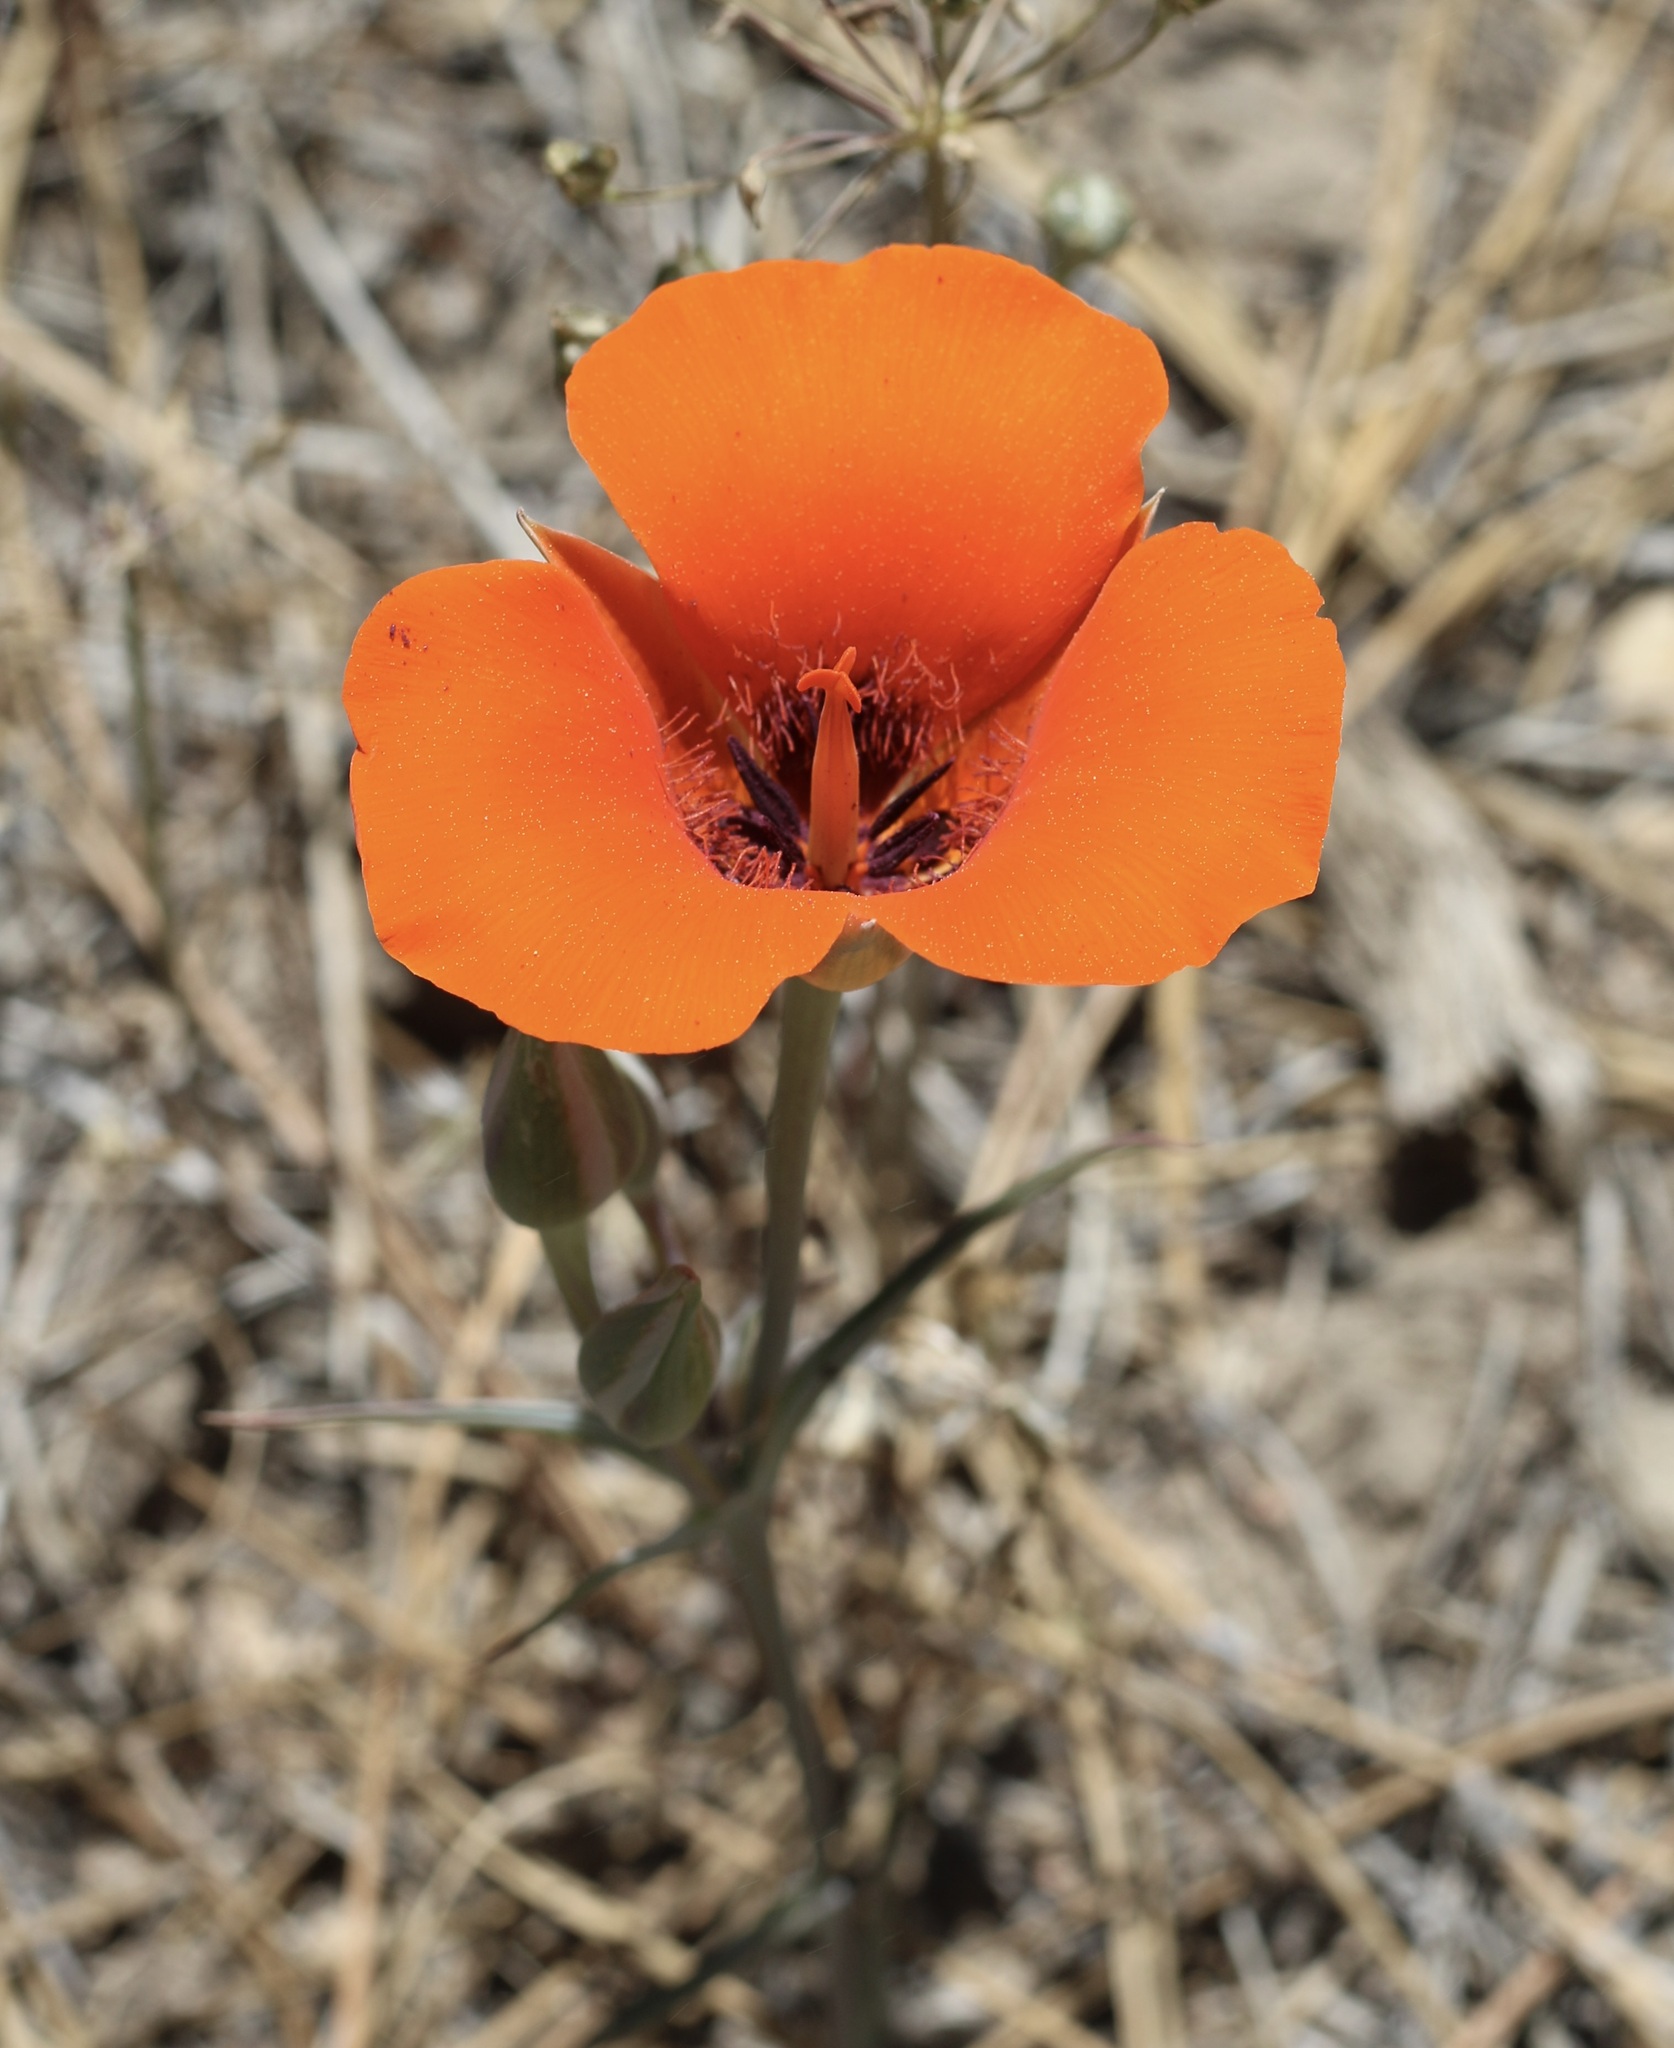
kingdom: Plantae
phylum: Tracheophyta
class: Liliopsida
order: Liliales
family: Liliaceae
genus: Calochortus
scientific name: Calochortus kennedyi
